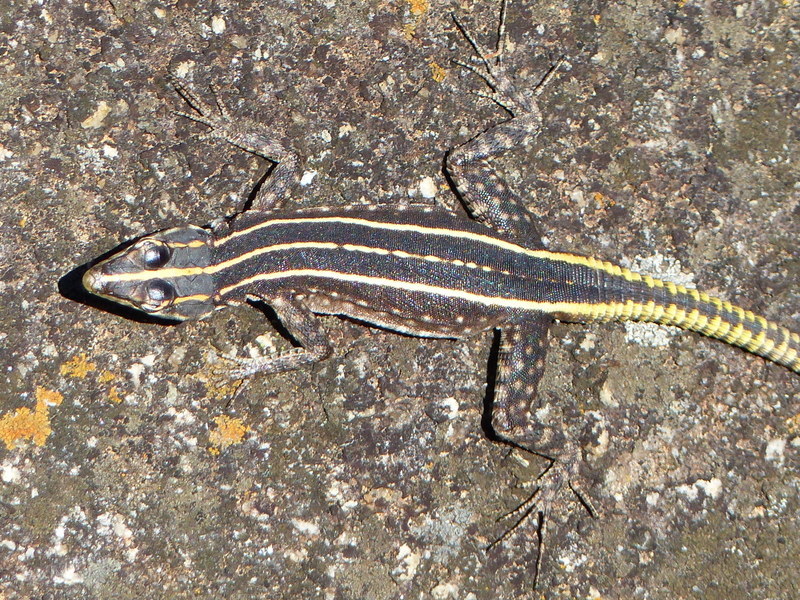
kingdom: Animalia
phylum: Chordata
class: Squamata
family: Cordylidae
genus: Platysaurus
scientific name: Platysaurus intermedius
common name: Common flat lizard
